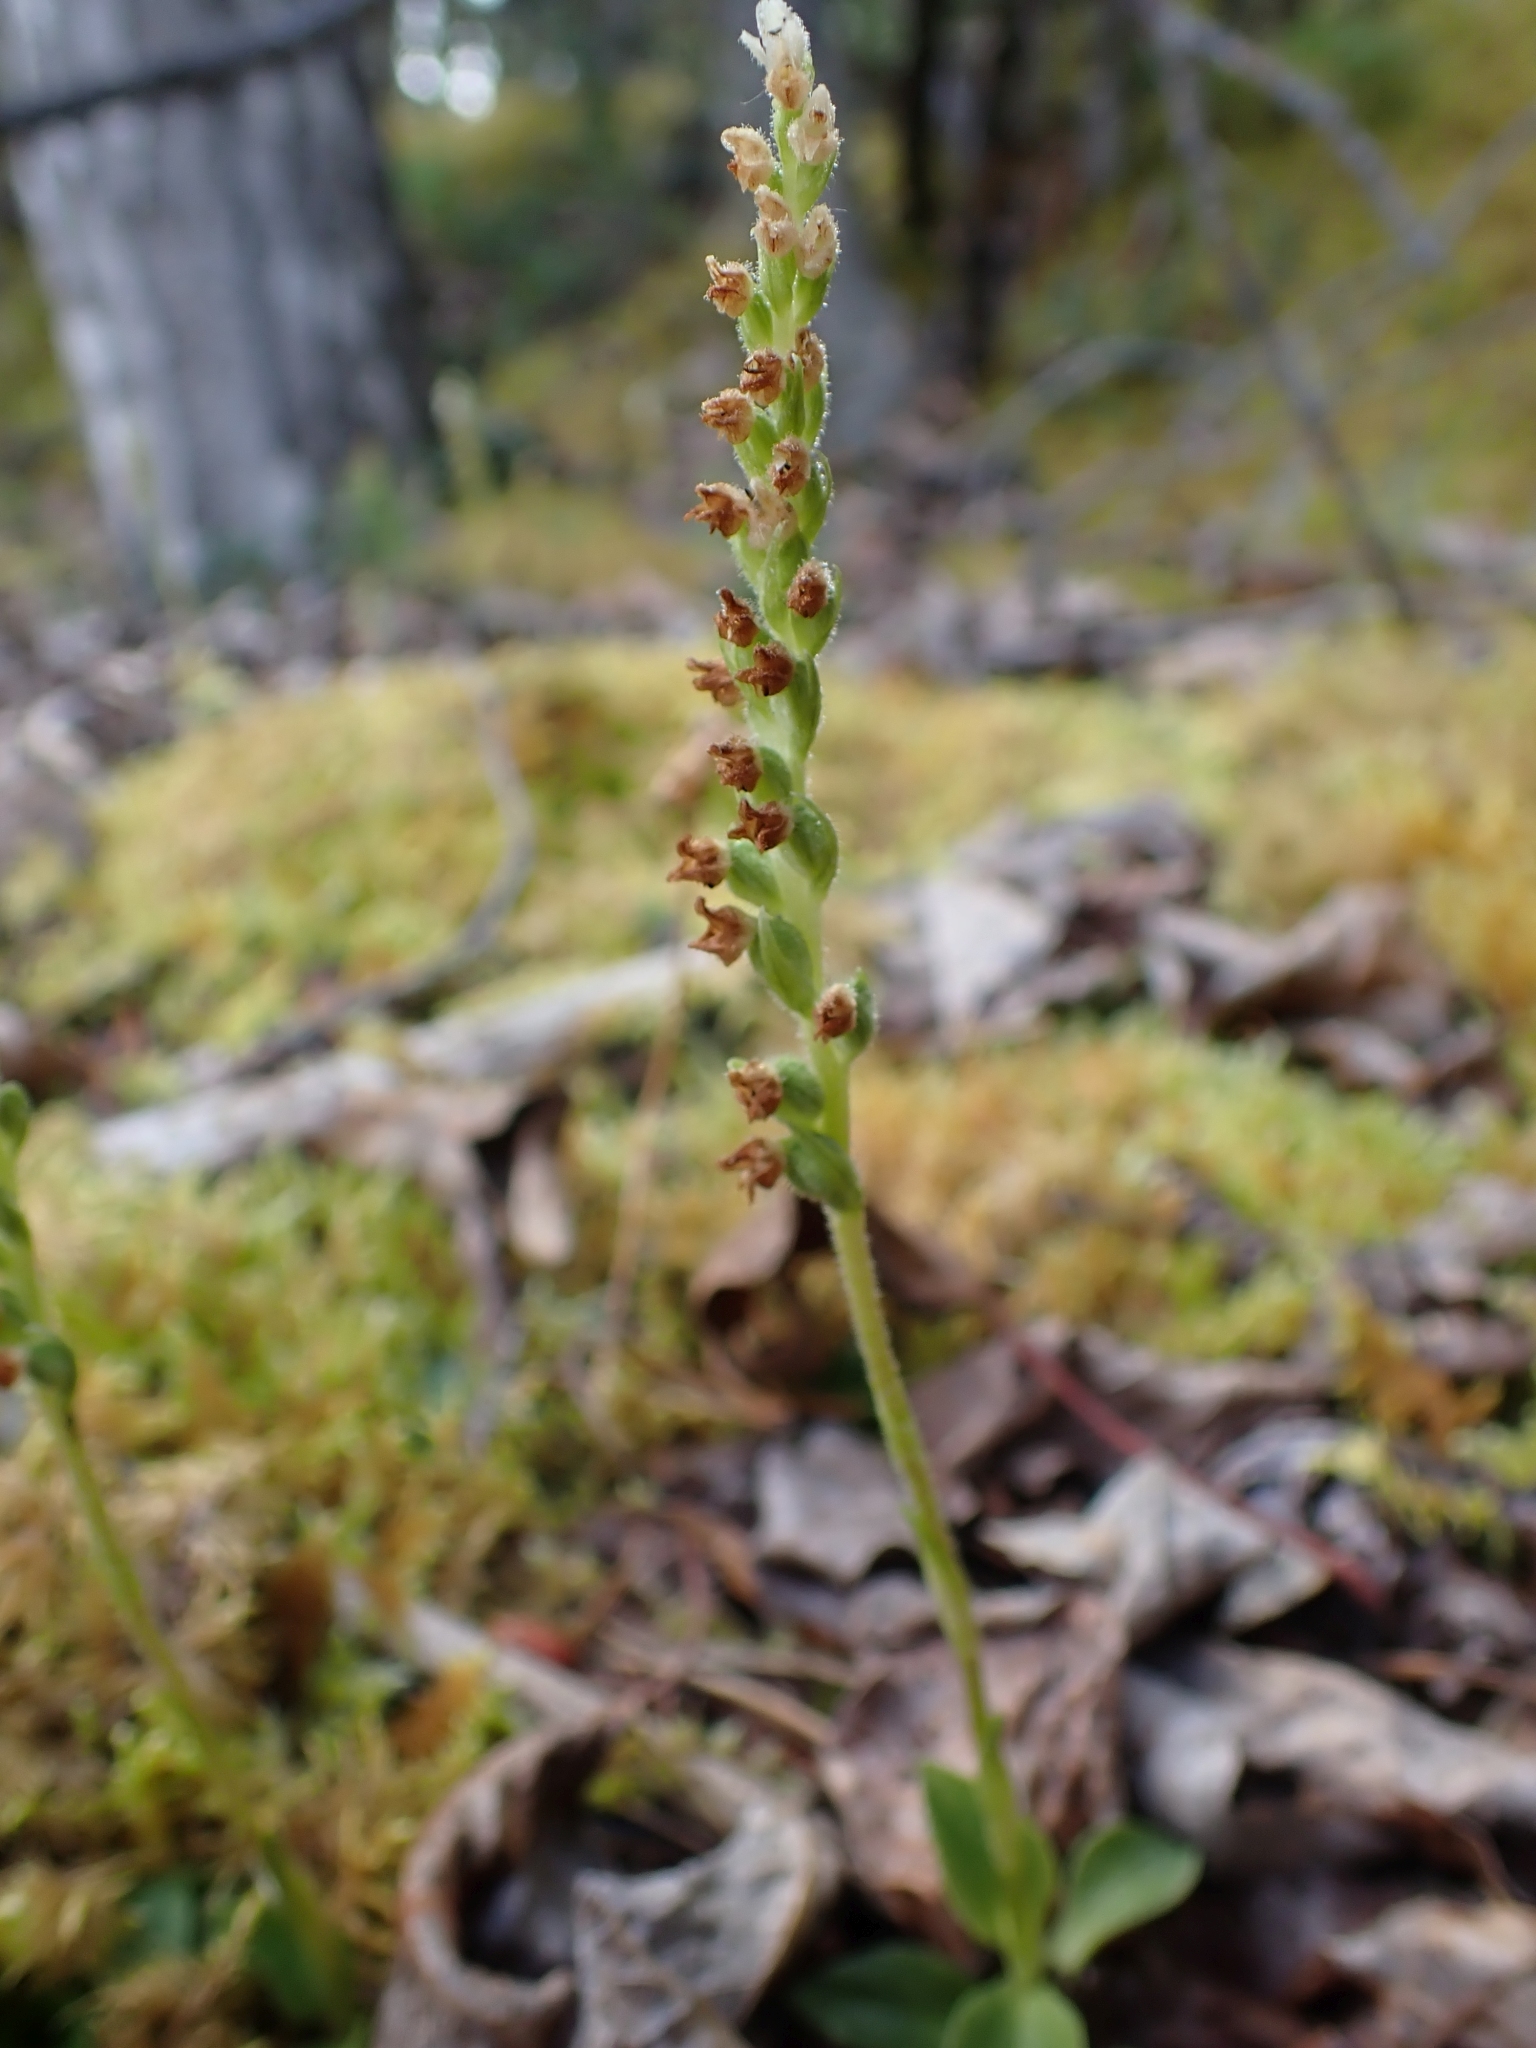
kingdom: Plantae
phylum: Tracheophyta
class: Liliopsida
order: Asparagales
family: Orchidaceae
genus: Goodyera
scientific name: Goodyera repens
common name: Creeping lady's-tresses
